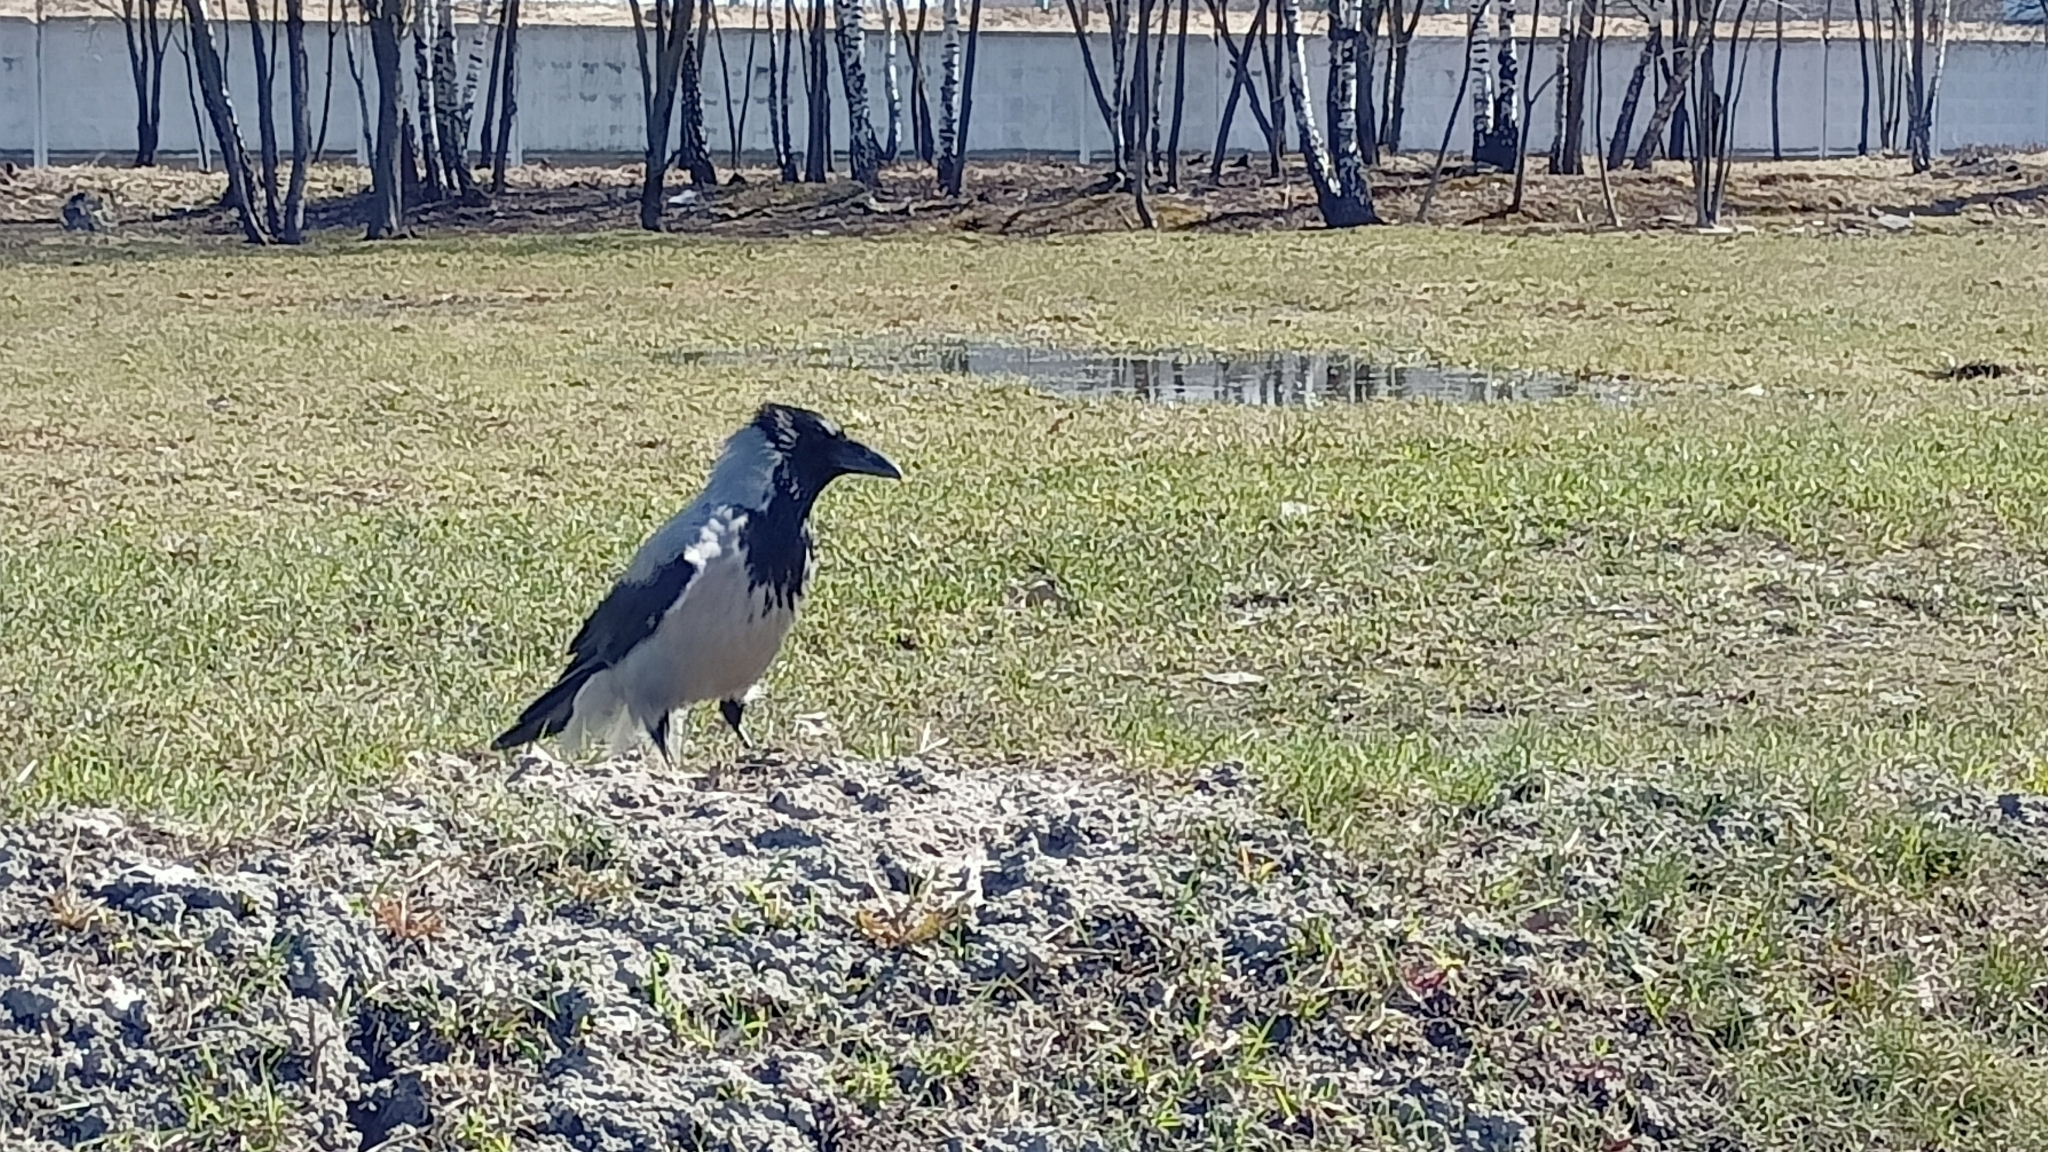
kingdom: Animalia
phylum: Chordata
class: Aves
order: Passeriformes
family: Corvidae
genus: Corvus
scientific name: Corvus cornix
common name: Hooded crow
